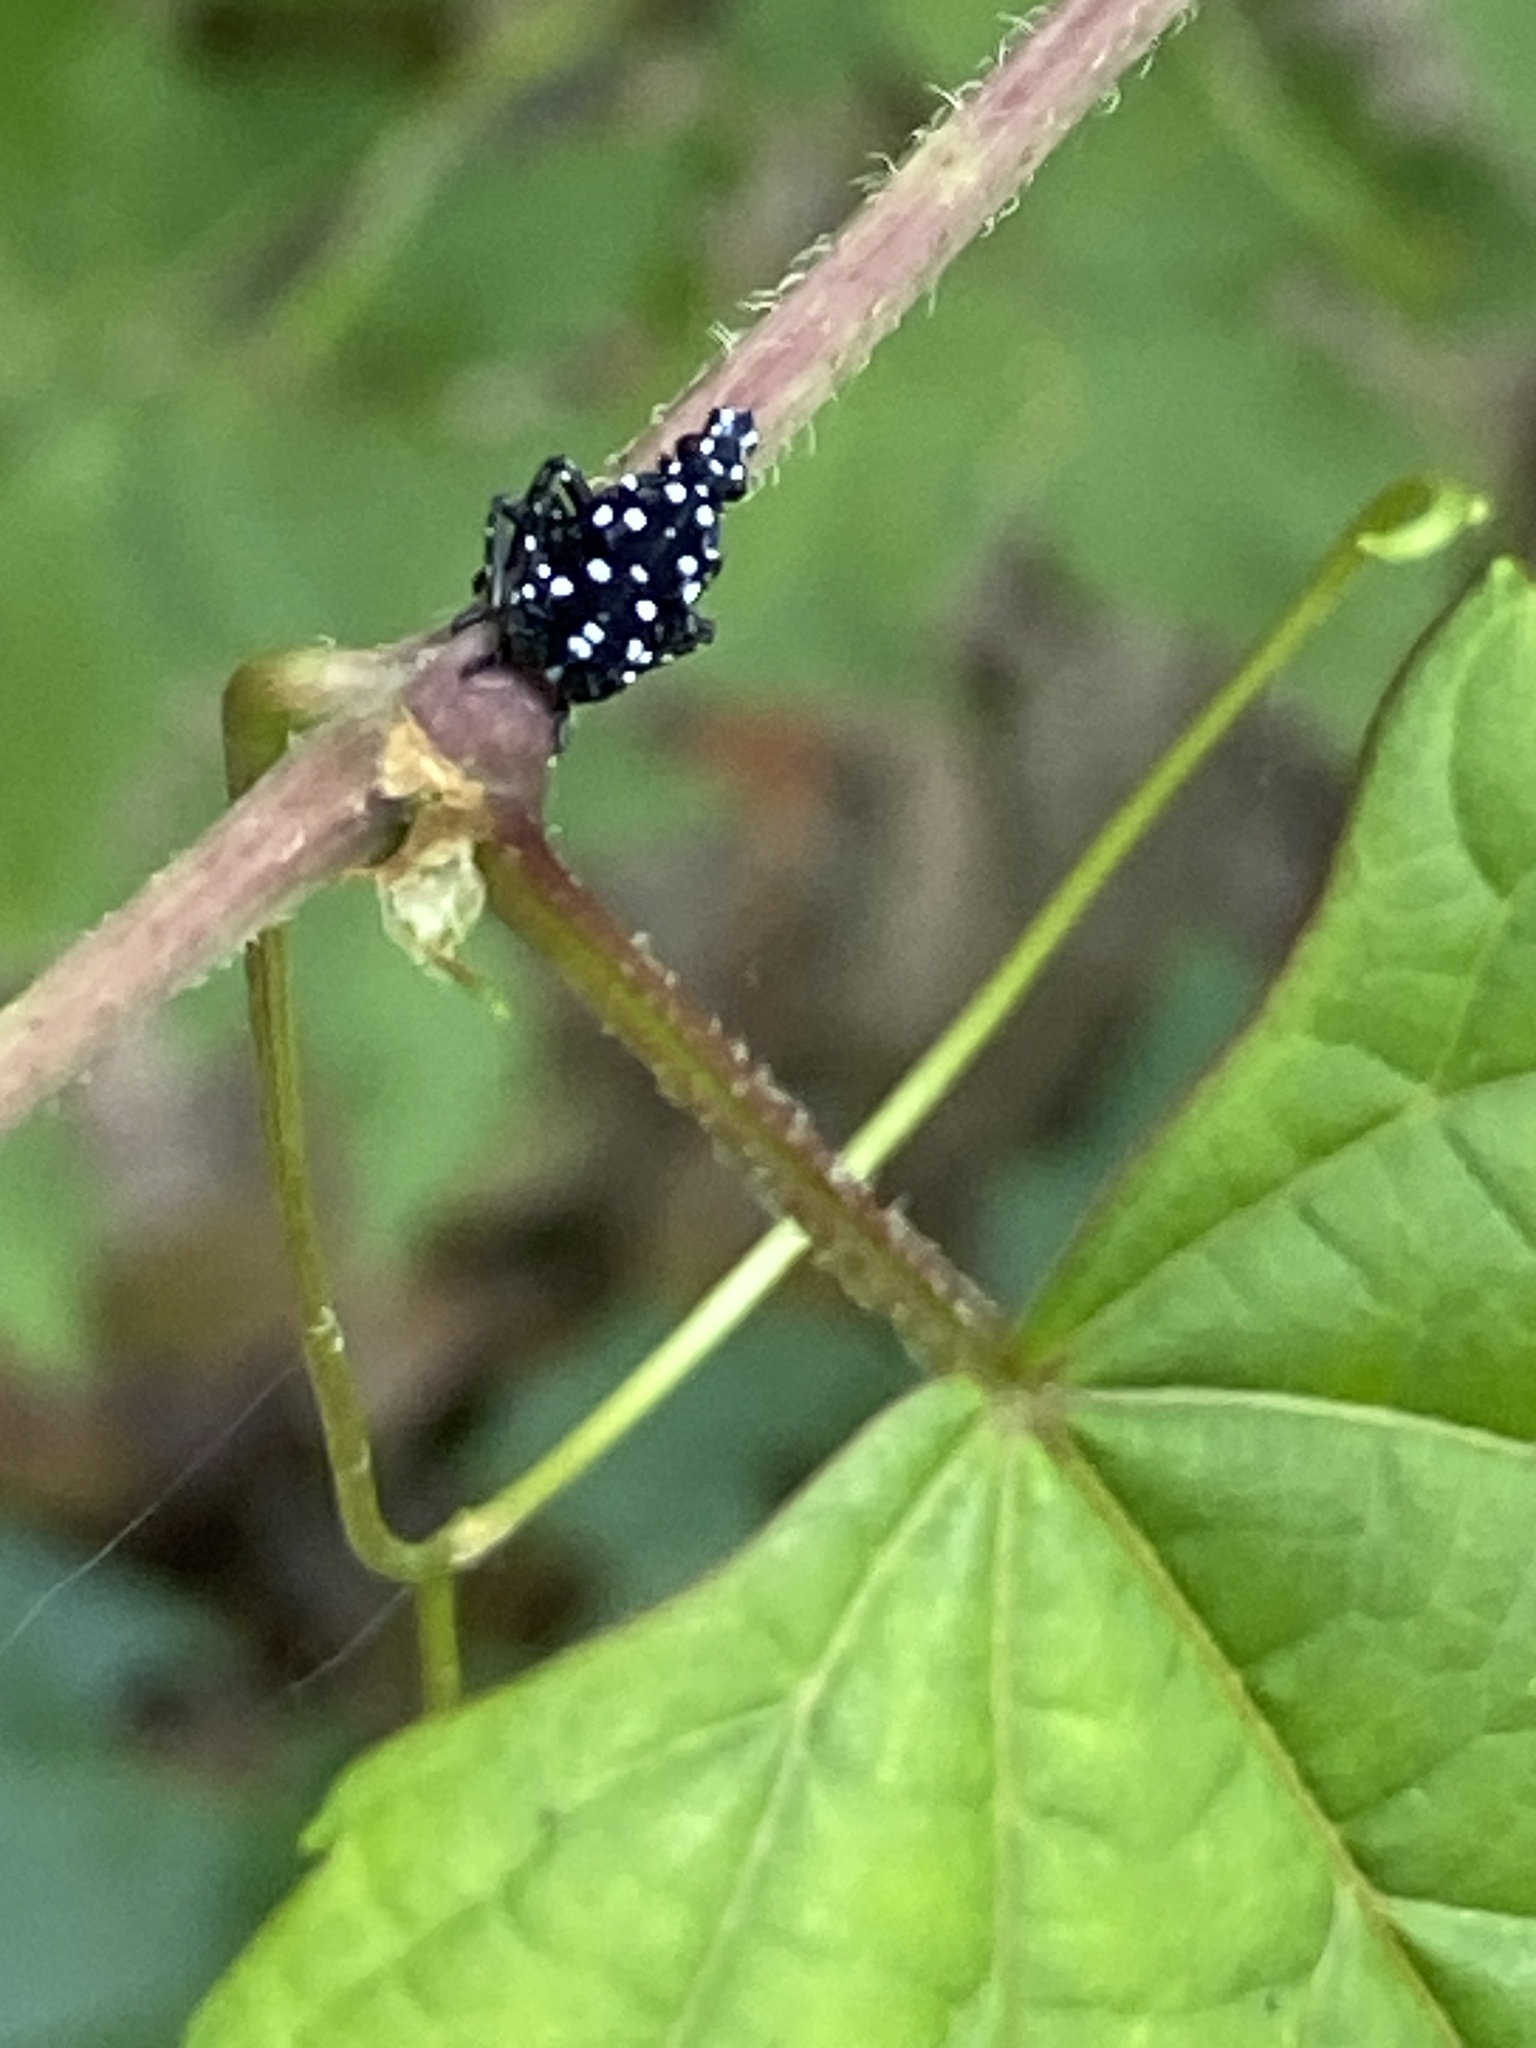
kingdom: Animalia
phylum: Arthropoda
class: Insecta
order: Hemiptera
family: Fulgoridae
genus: Lycorma
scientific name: Lycorma delicatula
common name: Spotted lanternfly
